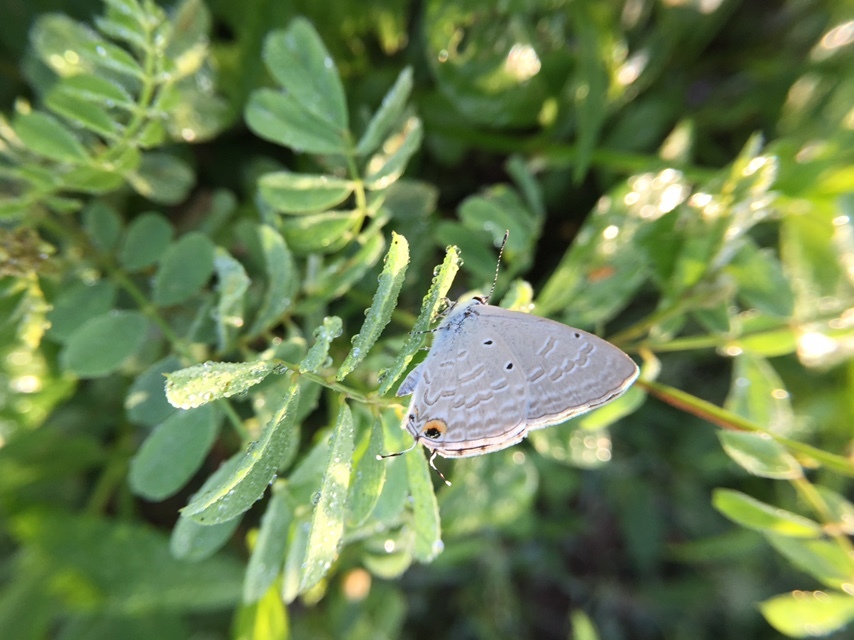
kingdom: Animalia
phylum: Arthropoda
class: Insecta
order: Lepidoptera
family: Lycaenidae
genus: Catochrysops
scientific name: Catochrysops strabo
